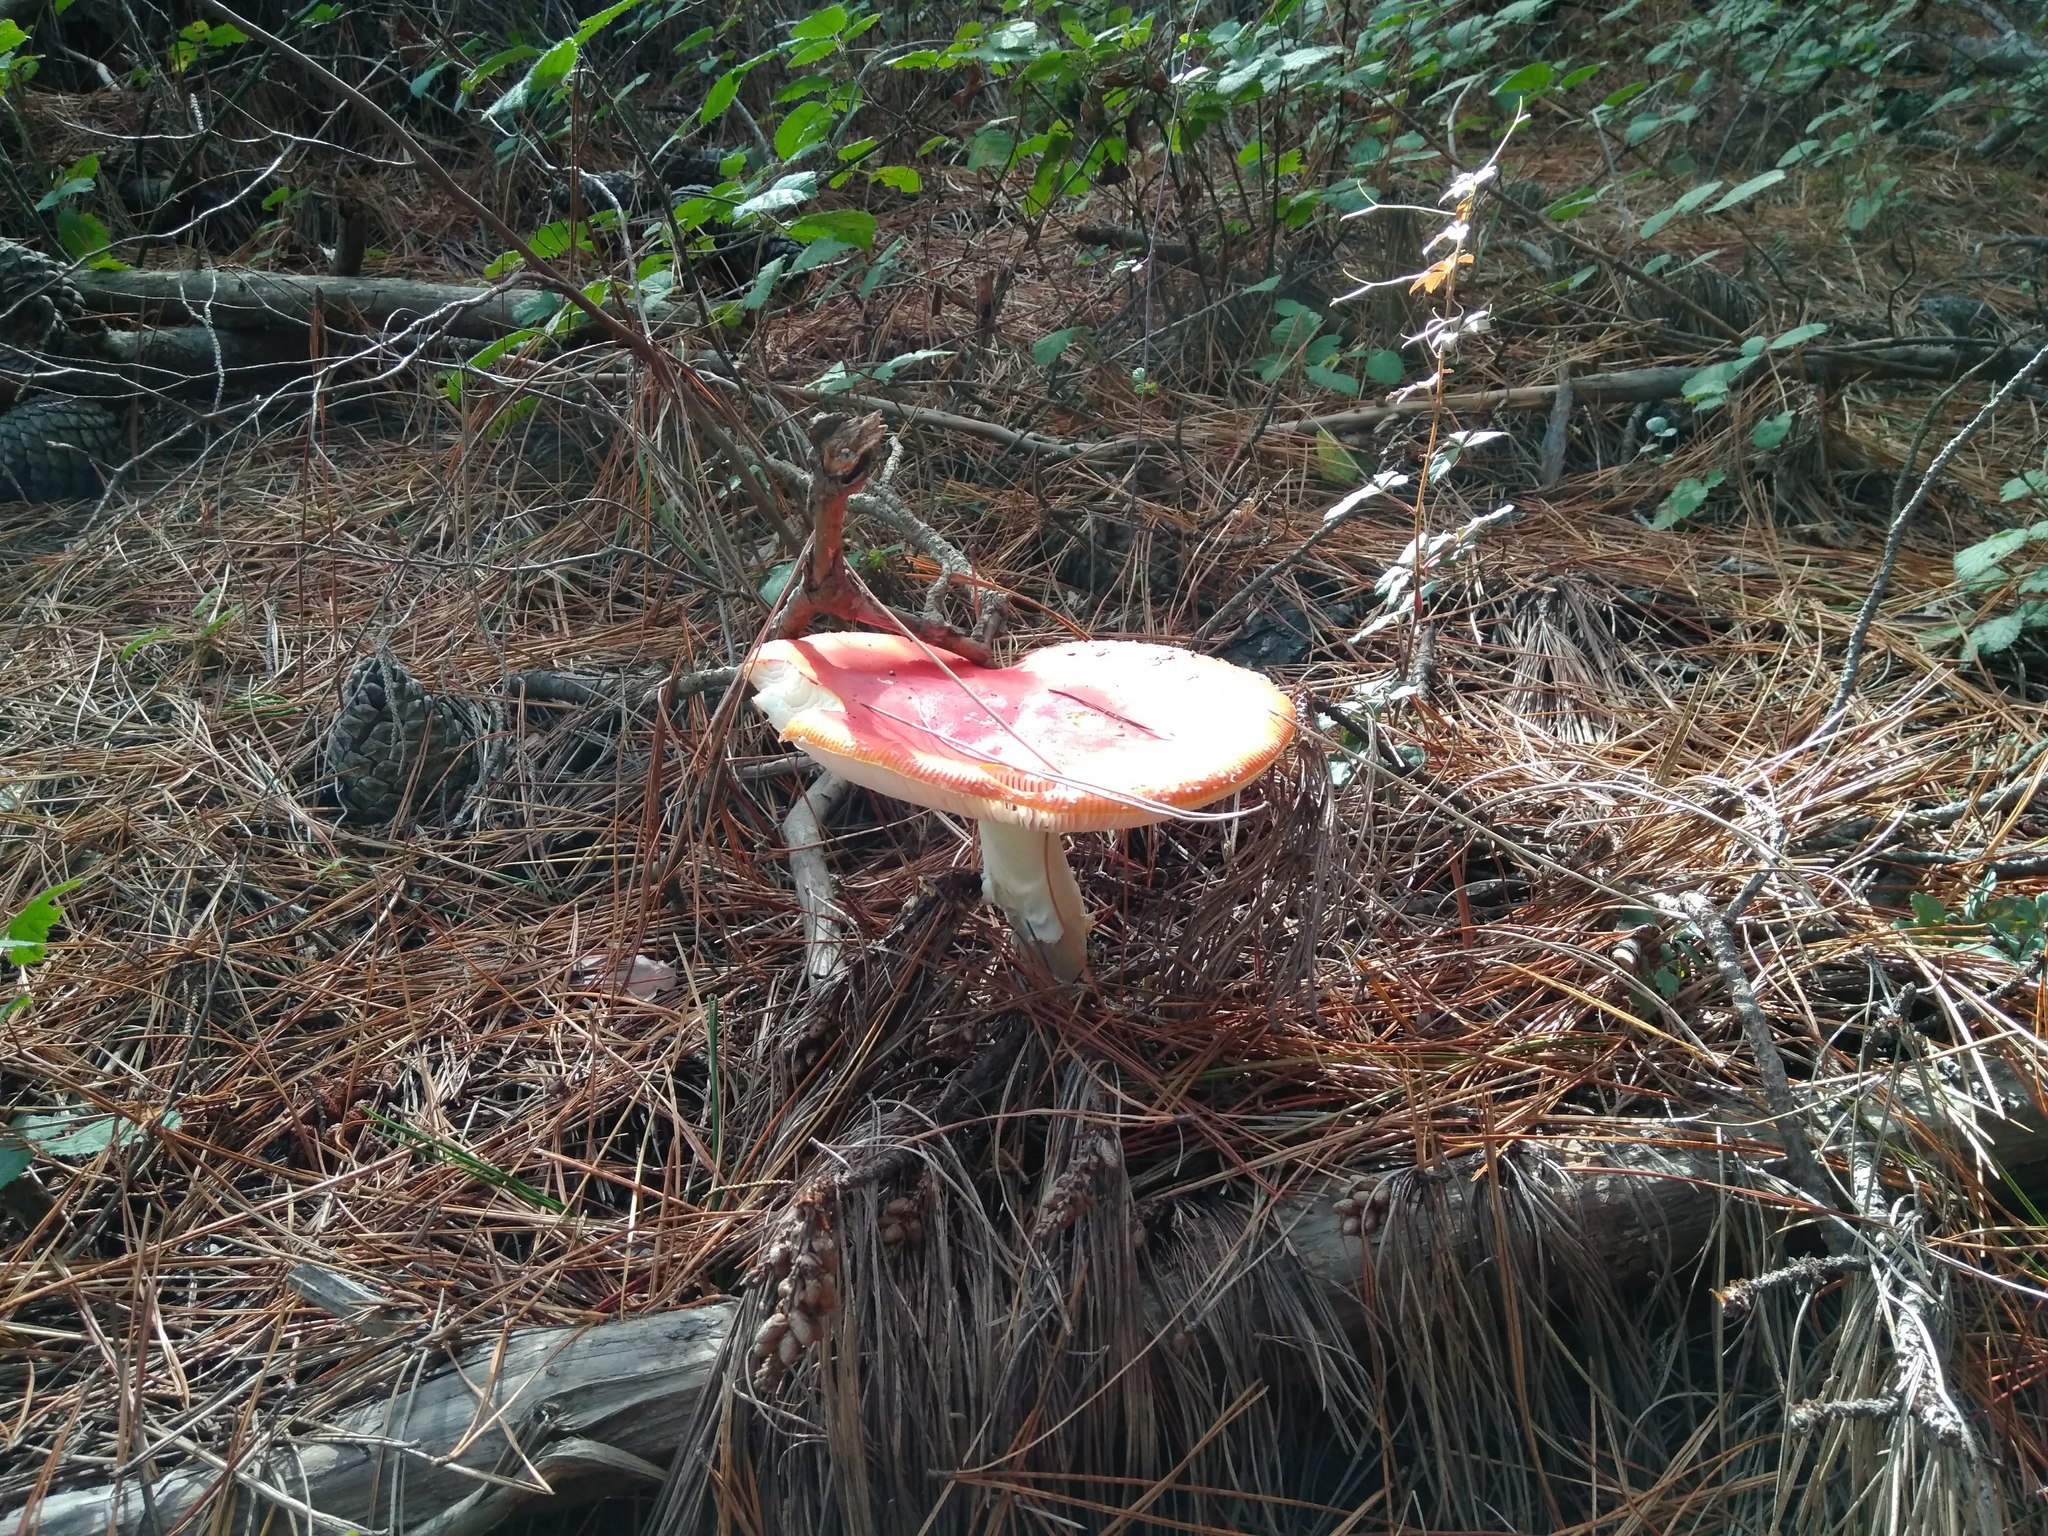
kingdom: Fungi
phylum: Basidiomycota
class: Agaricomycetes
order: Agaricales
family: Amanitaceae
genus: Amanita
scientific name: Amanita muscaria
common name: Fly agaric
